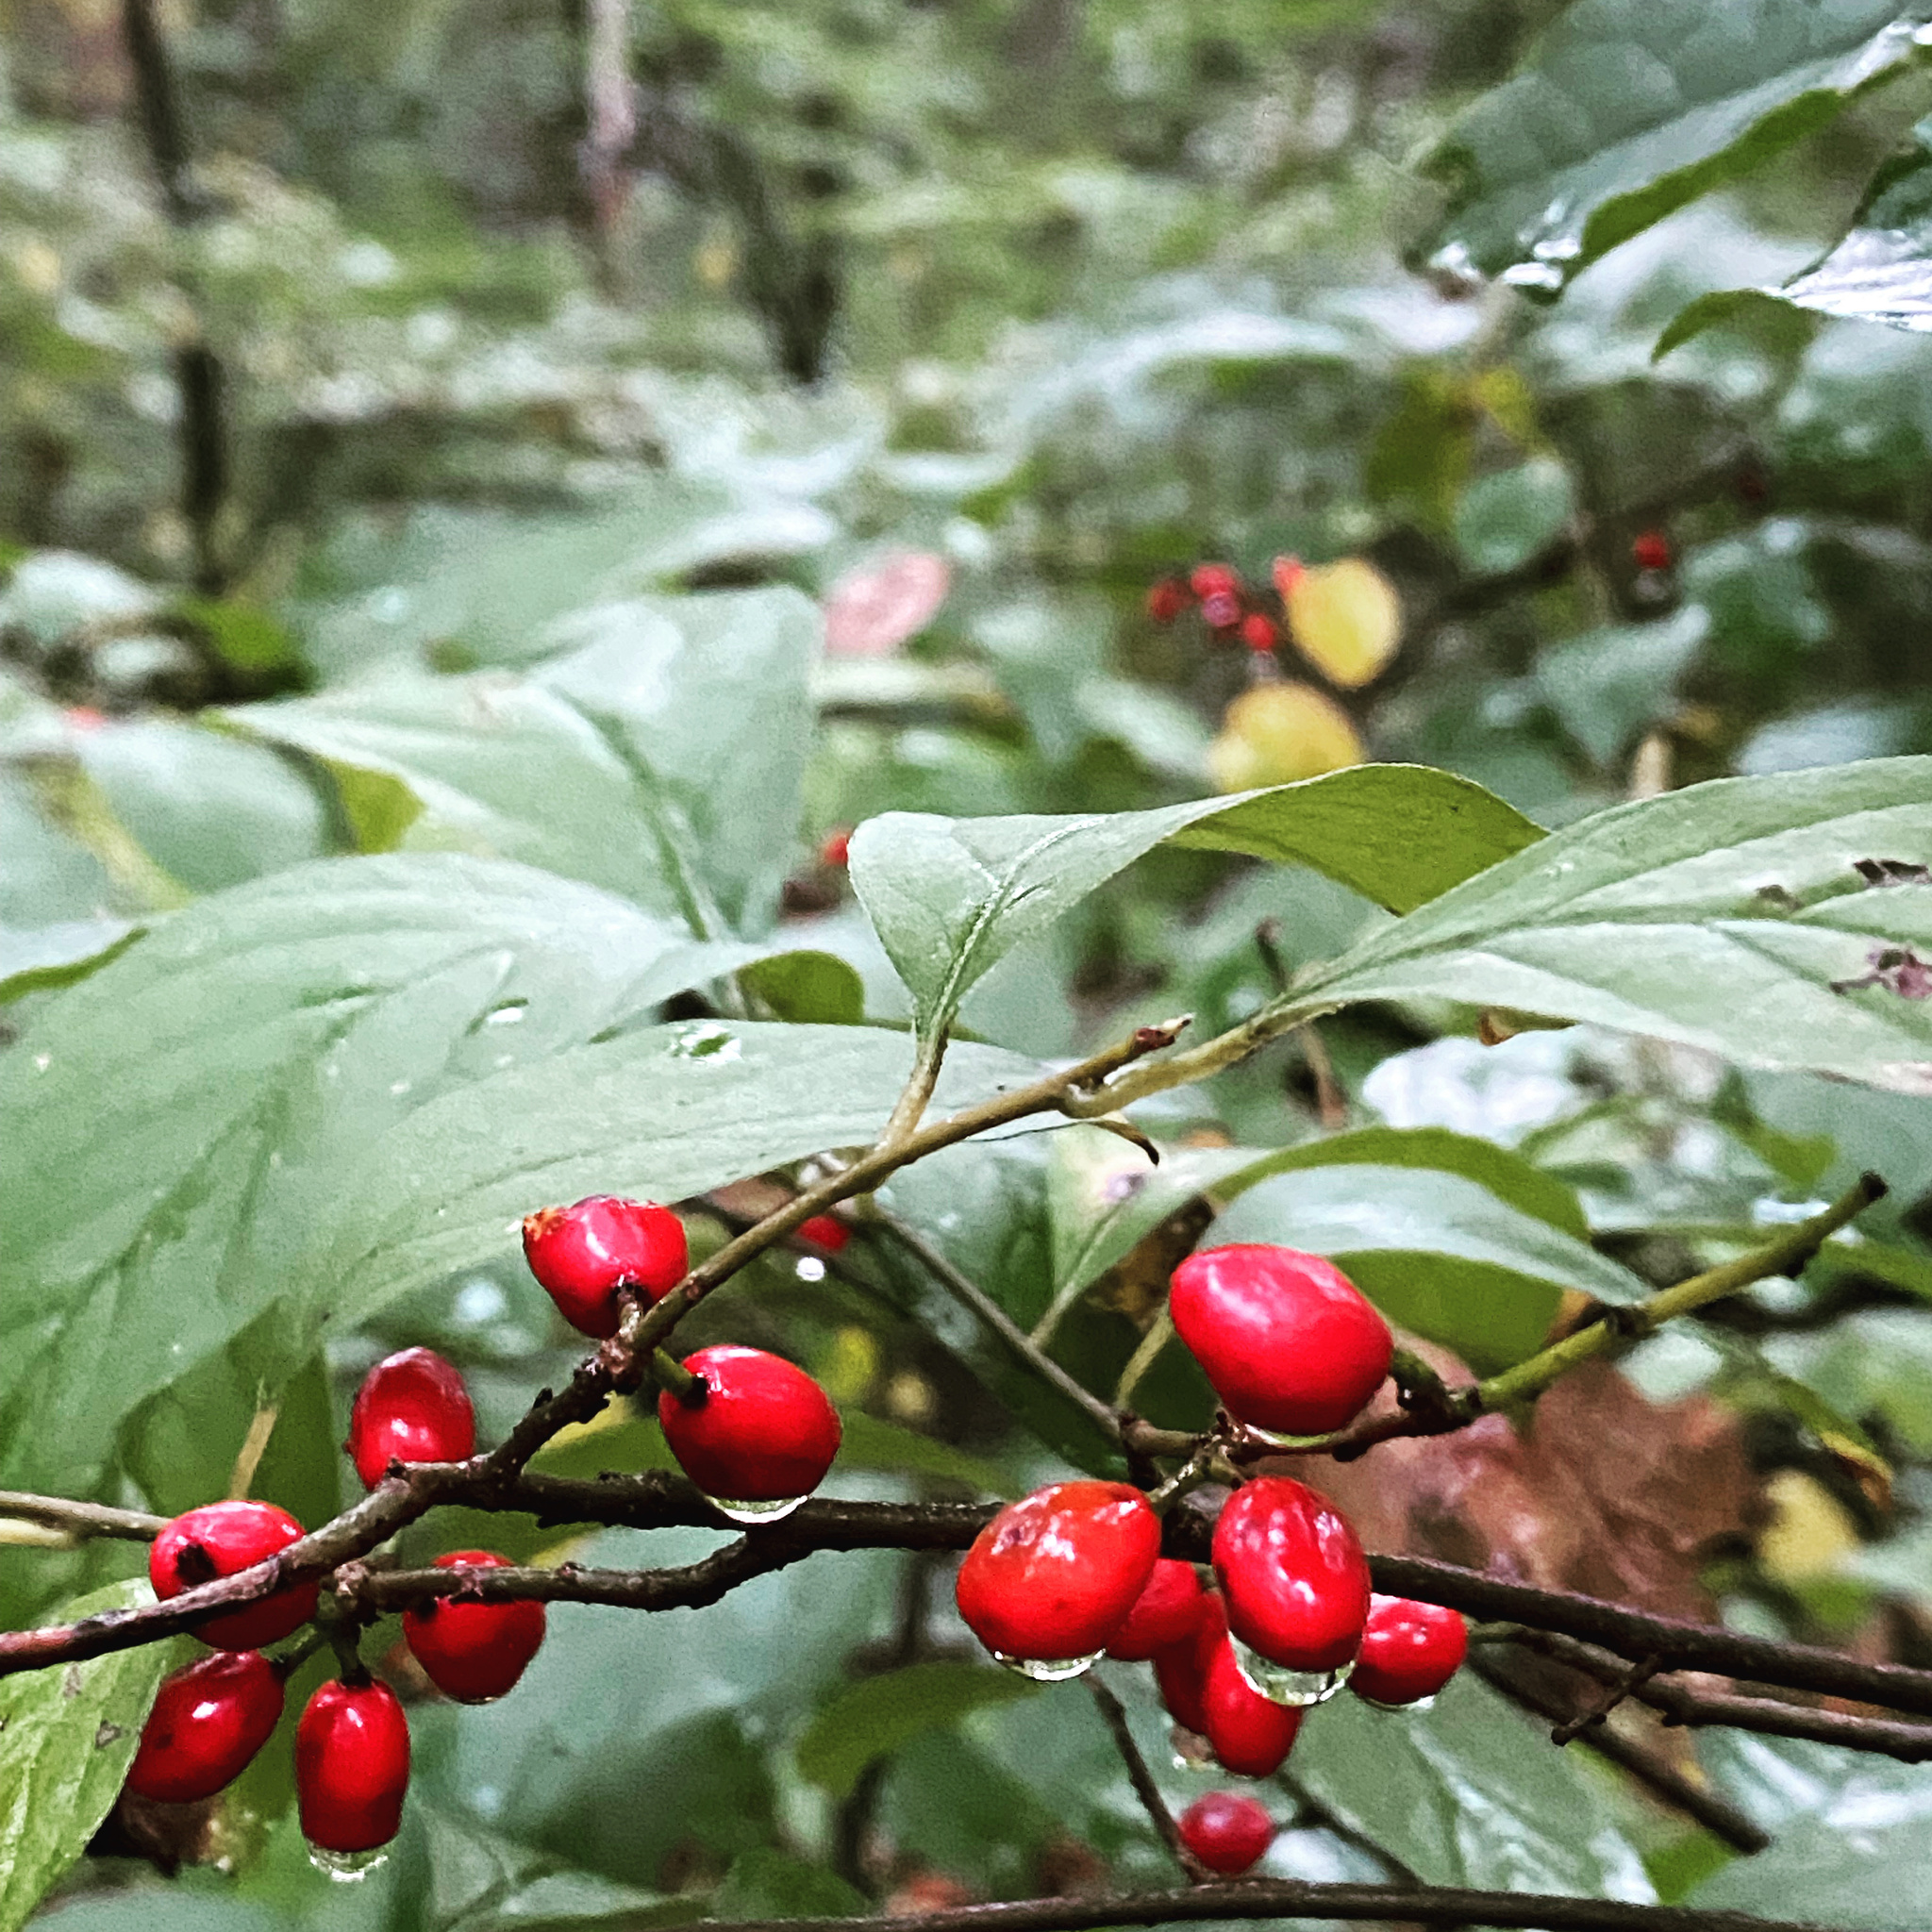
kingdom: Plantae
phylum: Tracheophyta
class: Magnoliopsida
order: Laurales
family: Lauraceae
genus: Lindera
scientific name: Lindera benzoin
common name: Spicebush
